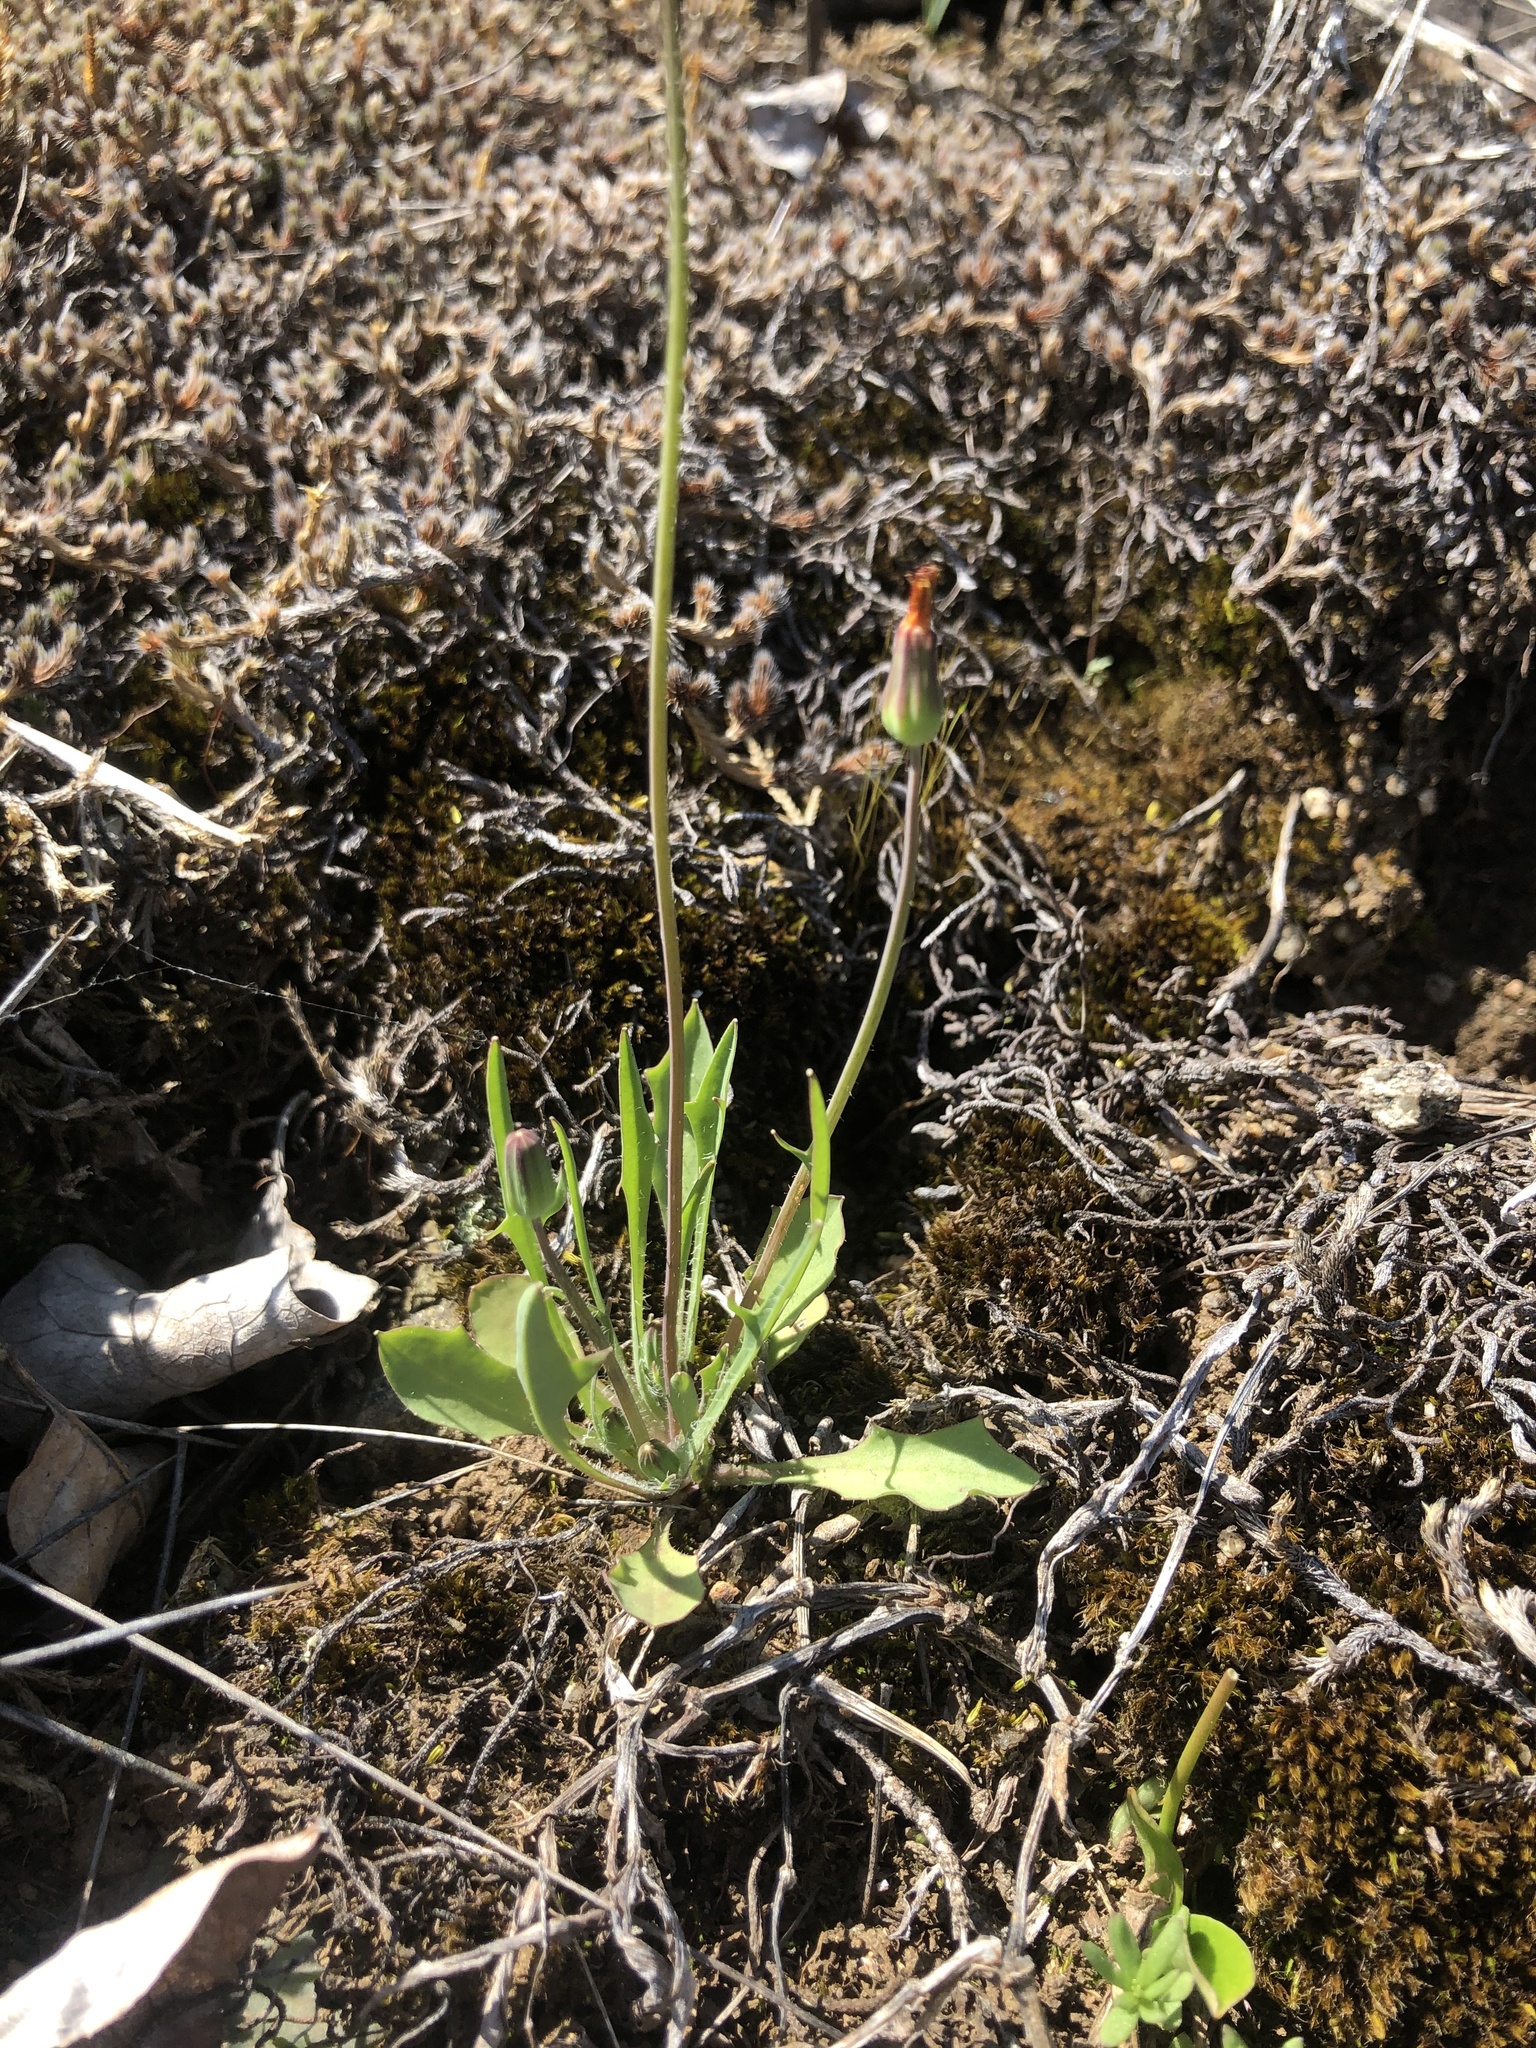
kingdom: Plantae
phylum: Tracheophyta
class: Magnoliopsida
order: Asterales
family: Asteraceae
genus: Krigia
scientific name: Krigia virginica
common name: Virginia dwarf-dandelion
